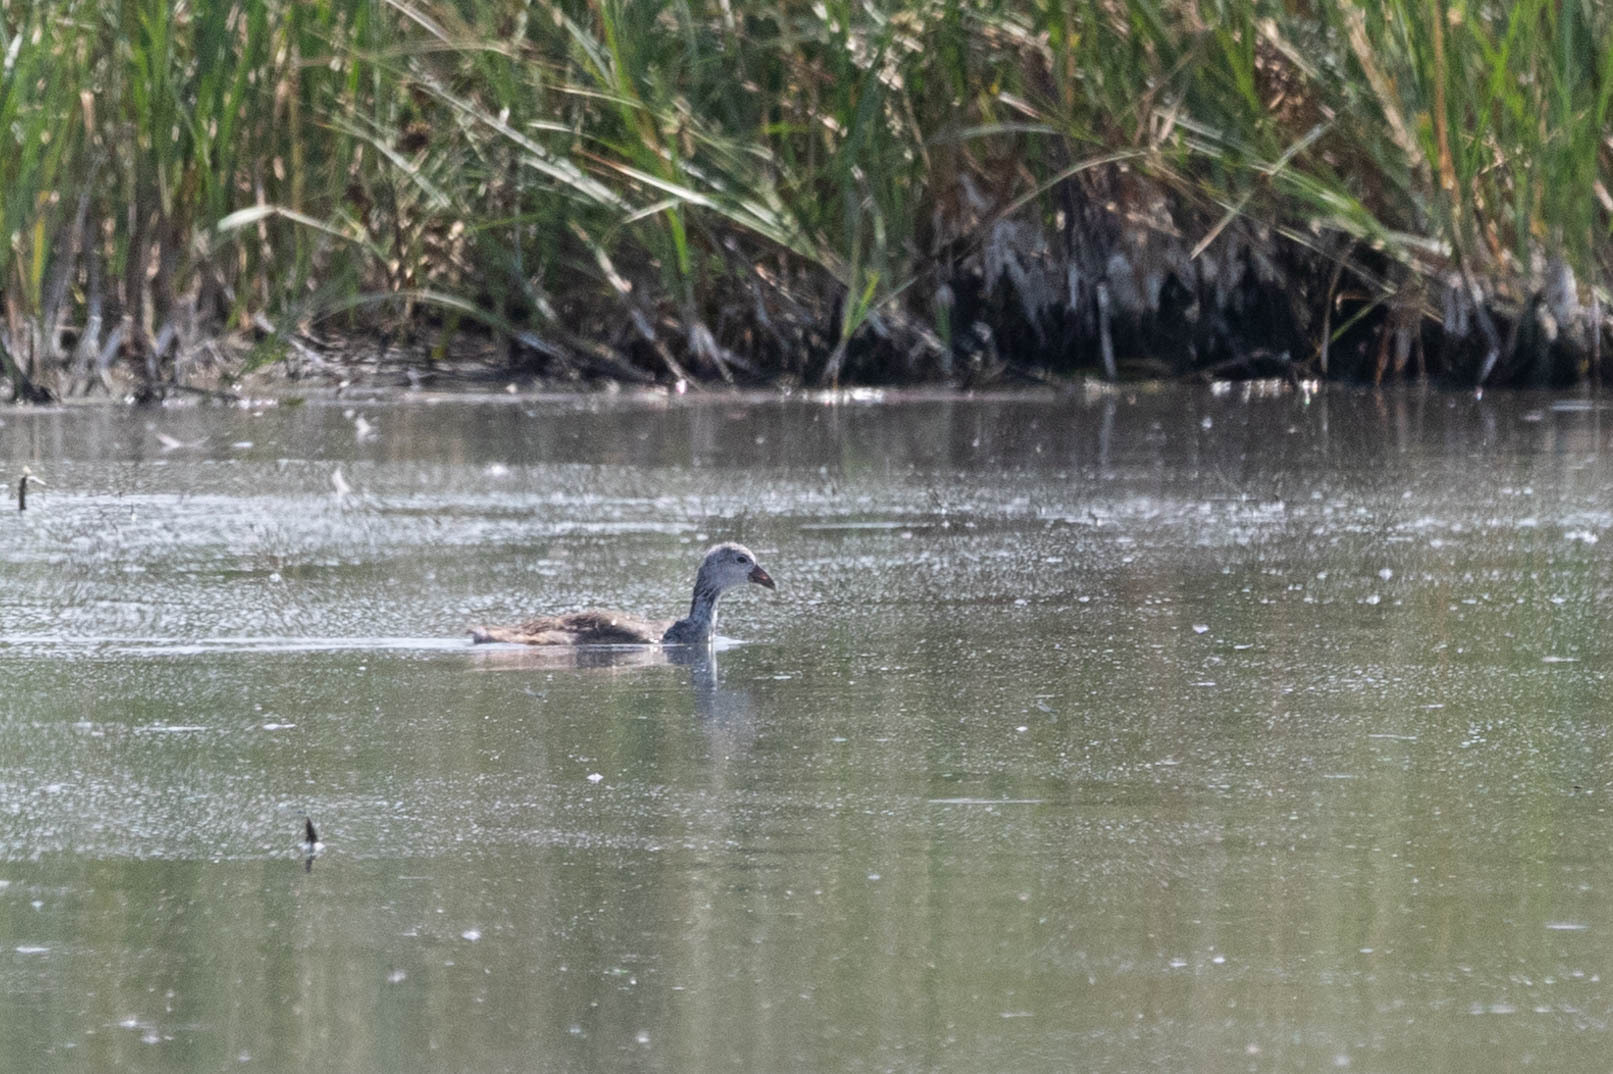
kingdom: Animalia
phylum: Chordata
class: Aves
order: Gruiformes
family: Rallidae
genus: Fulica
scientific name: Fulica americana
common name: American coot
